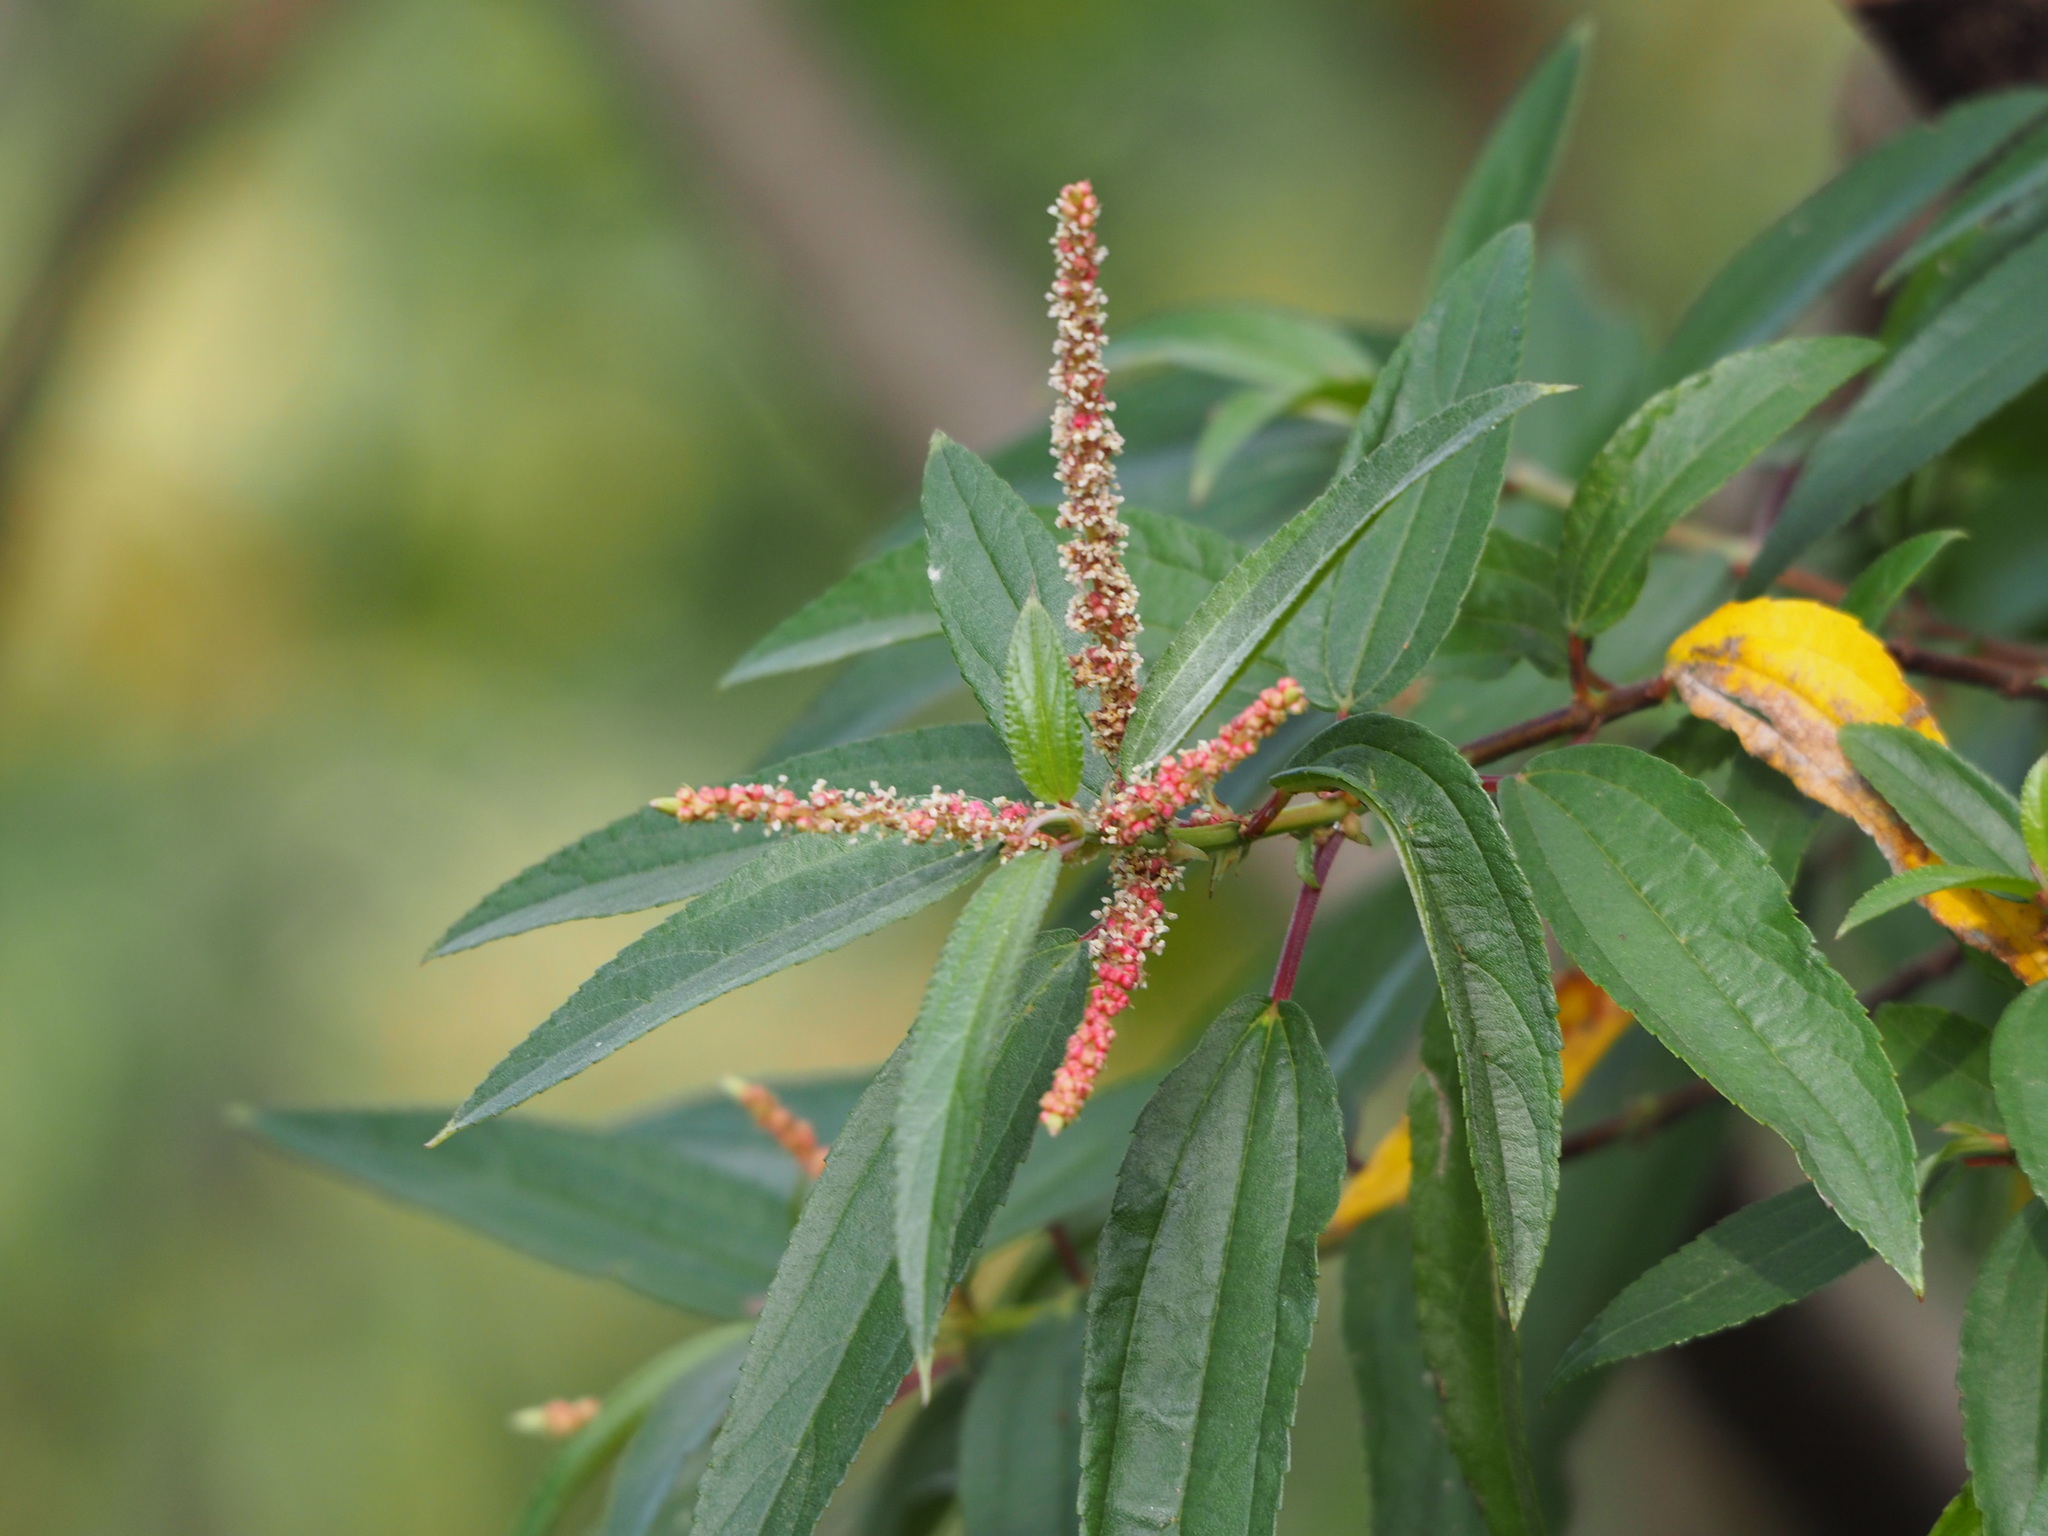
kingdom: Plantae
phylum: Tracheophyta
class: Magnoliopsida
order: Rosales
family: Urticaceae
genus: Boehmeria
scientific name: Boehmeria densiflora
